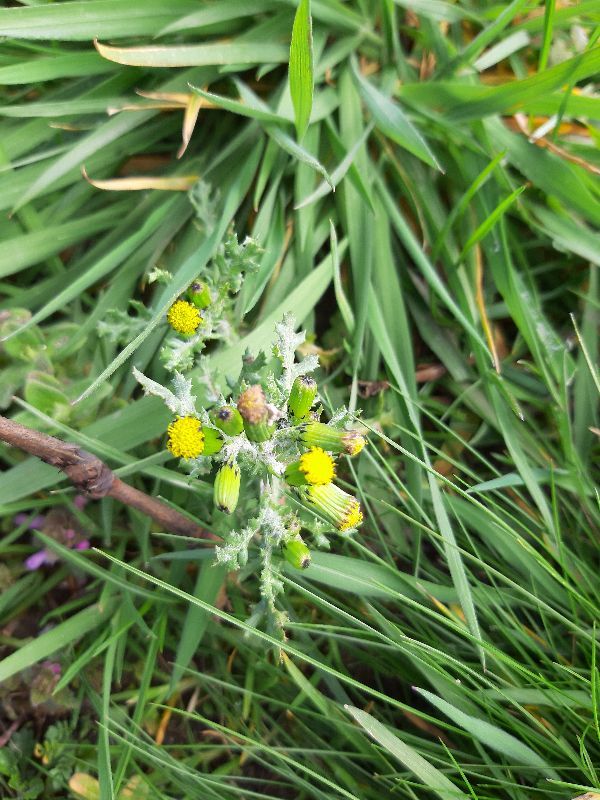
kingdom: Plantae
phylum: Tracheophyta
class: Magnoliopsida
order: Asterales
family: Asteraceae
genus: Senecio
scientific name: Senecio vulgaris
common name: Old-man-in-the-spring
